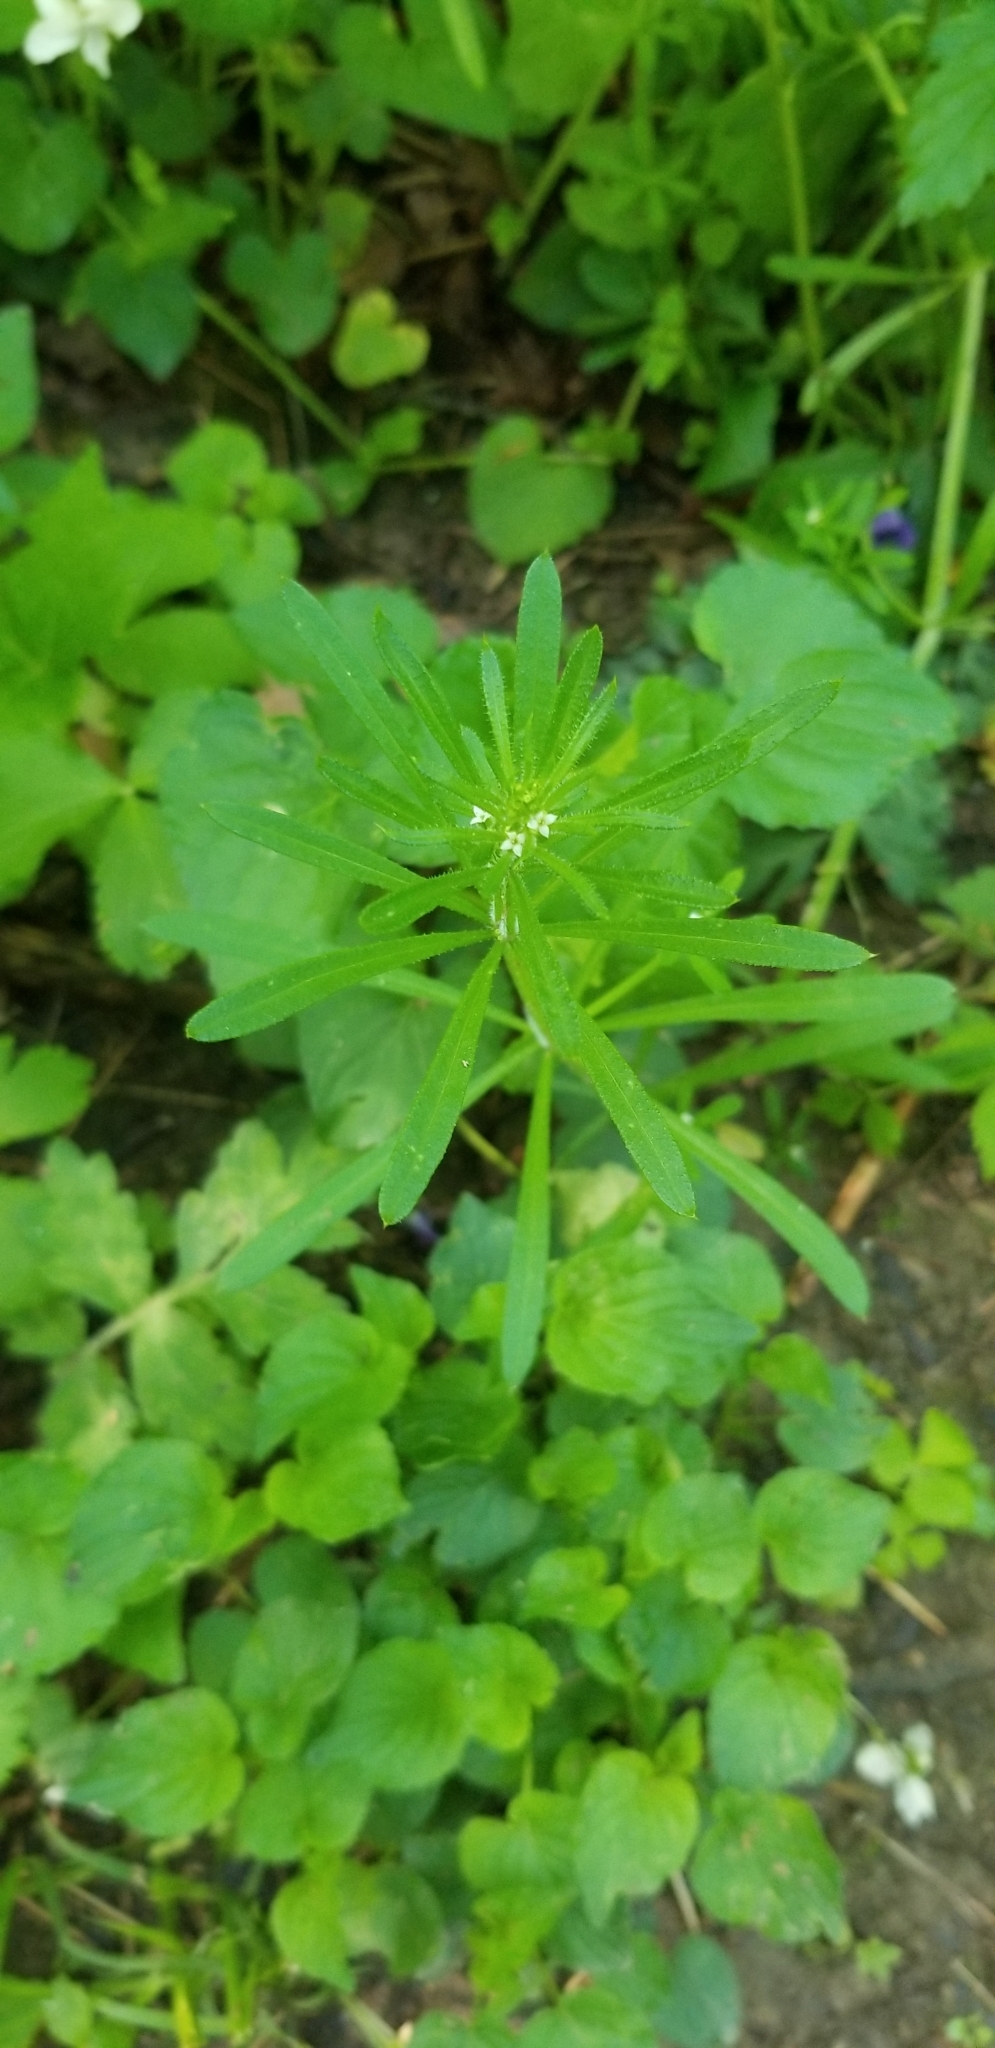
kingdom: Plantae
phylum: Tracheophyta
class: Magnoliopsida
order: Gentianales
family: Rubiaceae
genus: Galium
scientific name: Galium aparine
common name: Cleavers
